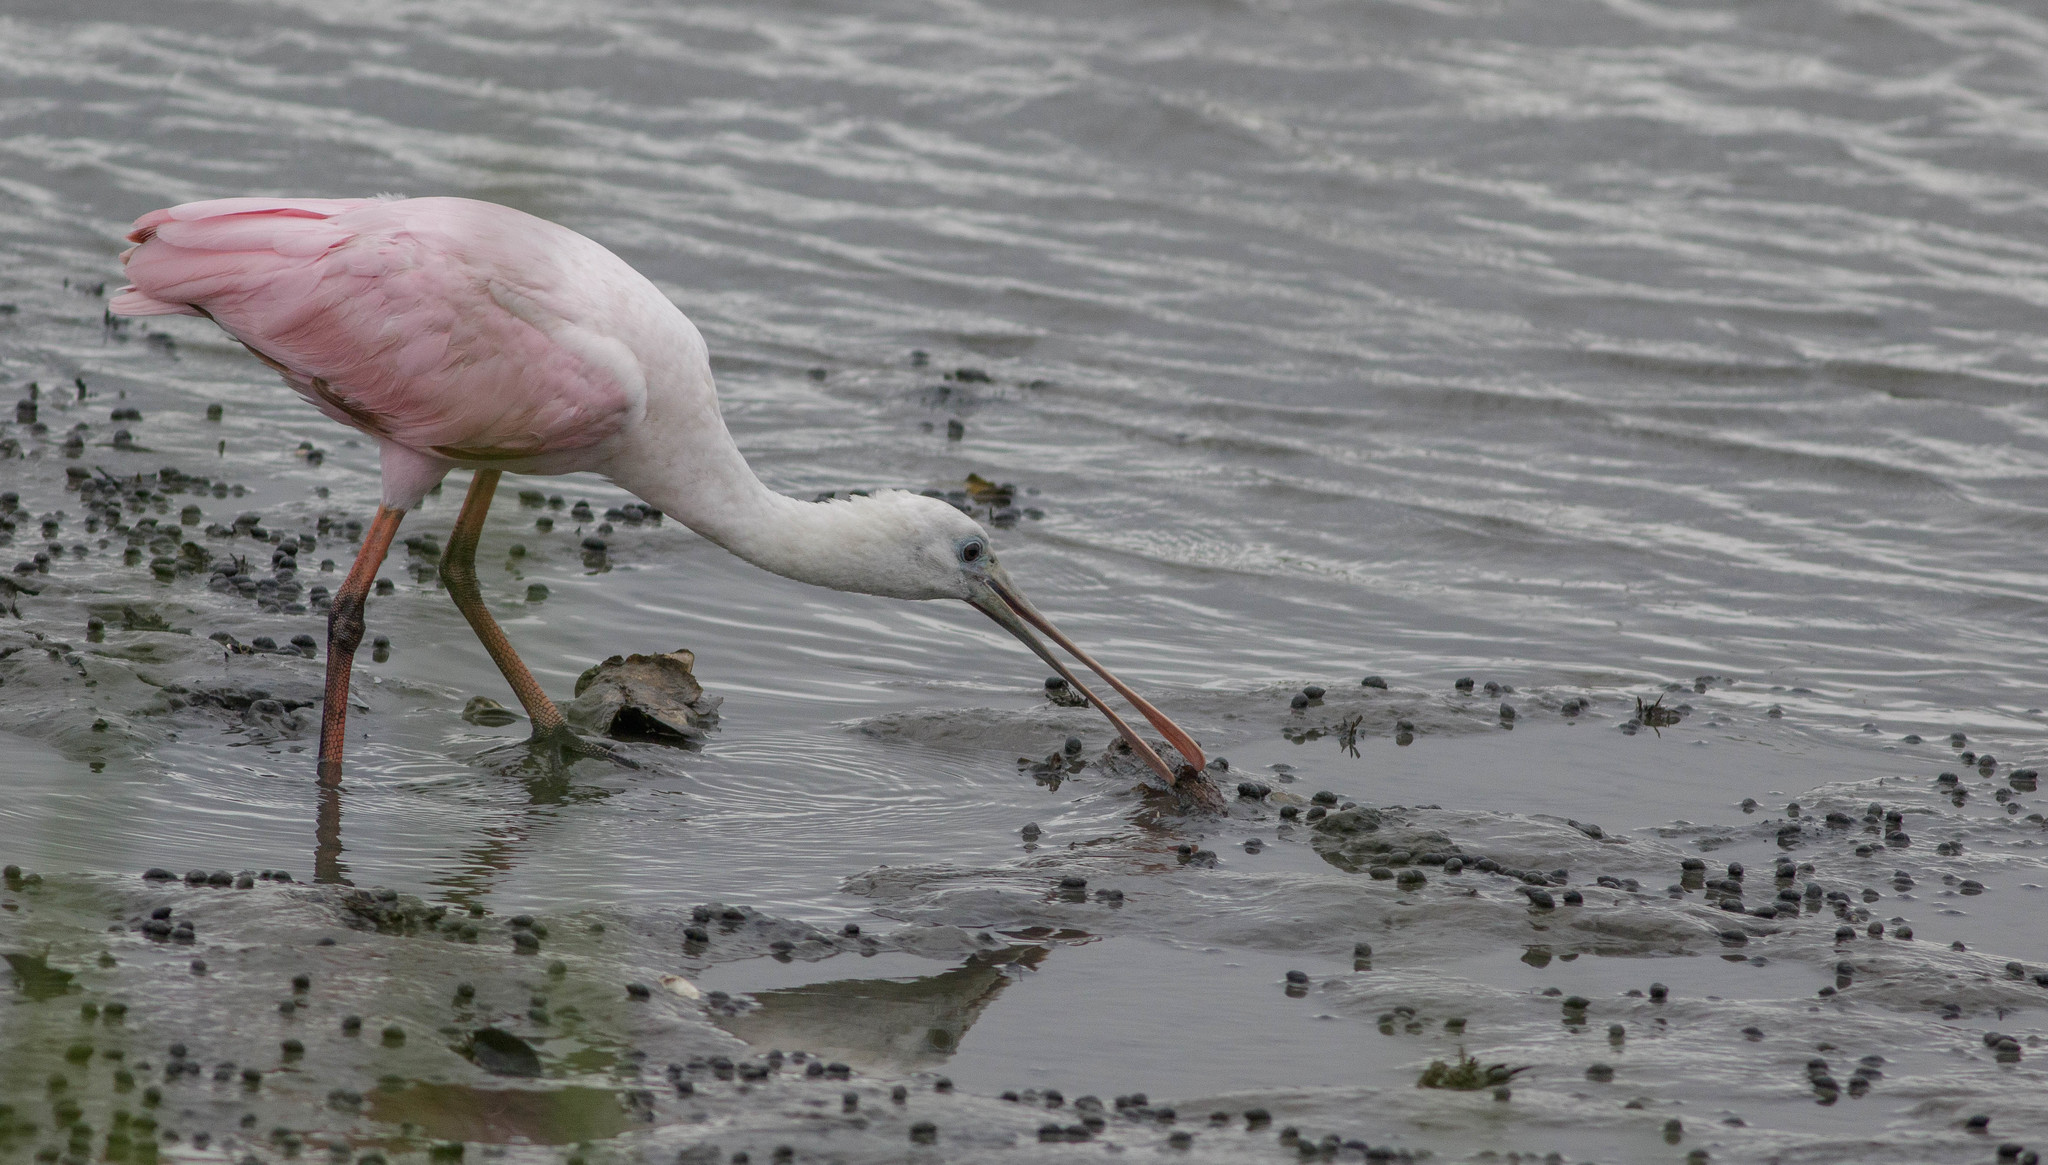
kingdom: Animalia
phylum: Chordata
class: Aves
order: Pelecaniformes
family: Threskiornithidae
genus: Platalea
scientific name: Platalea ajaja
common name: Roseate spoonbill
